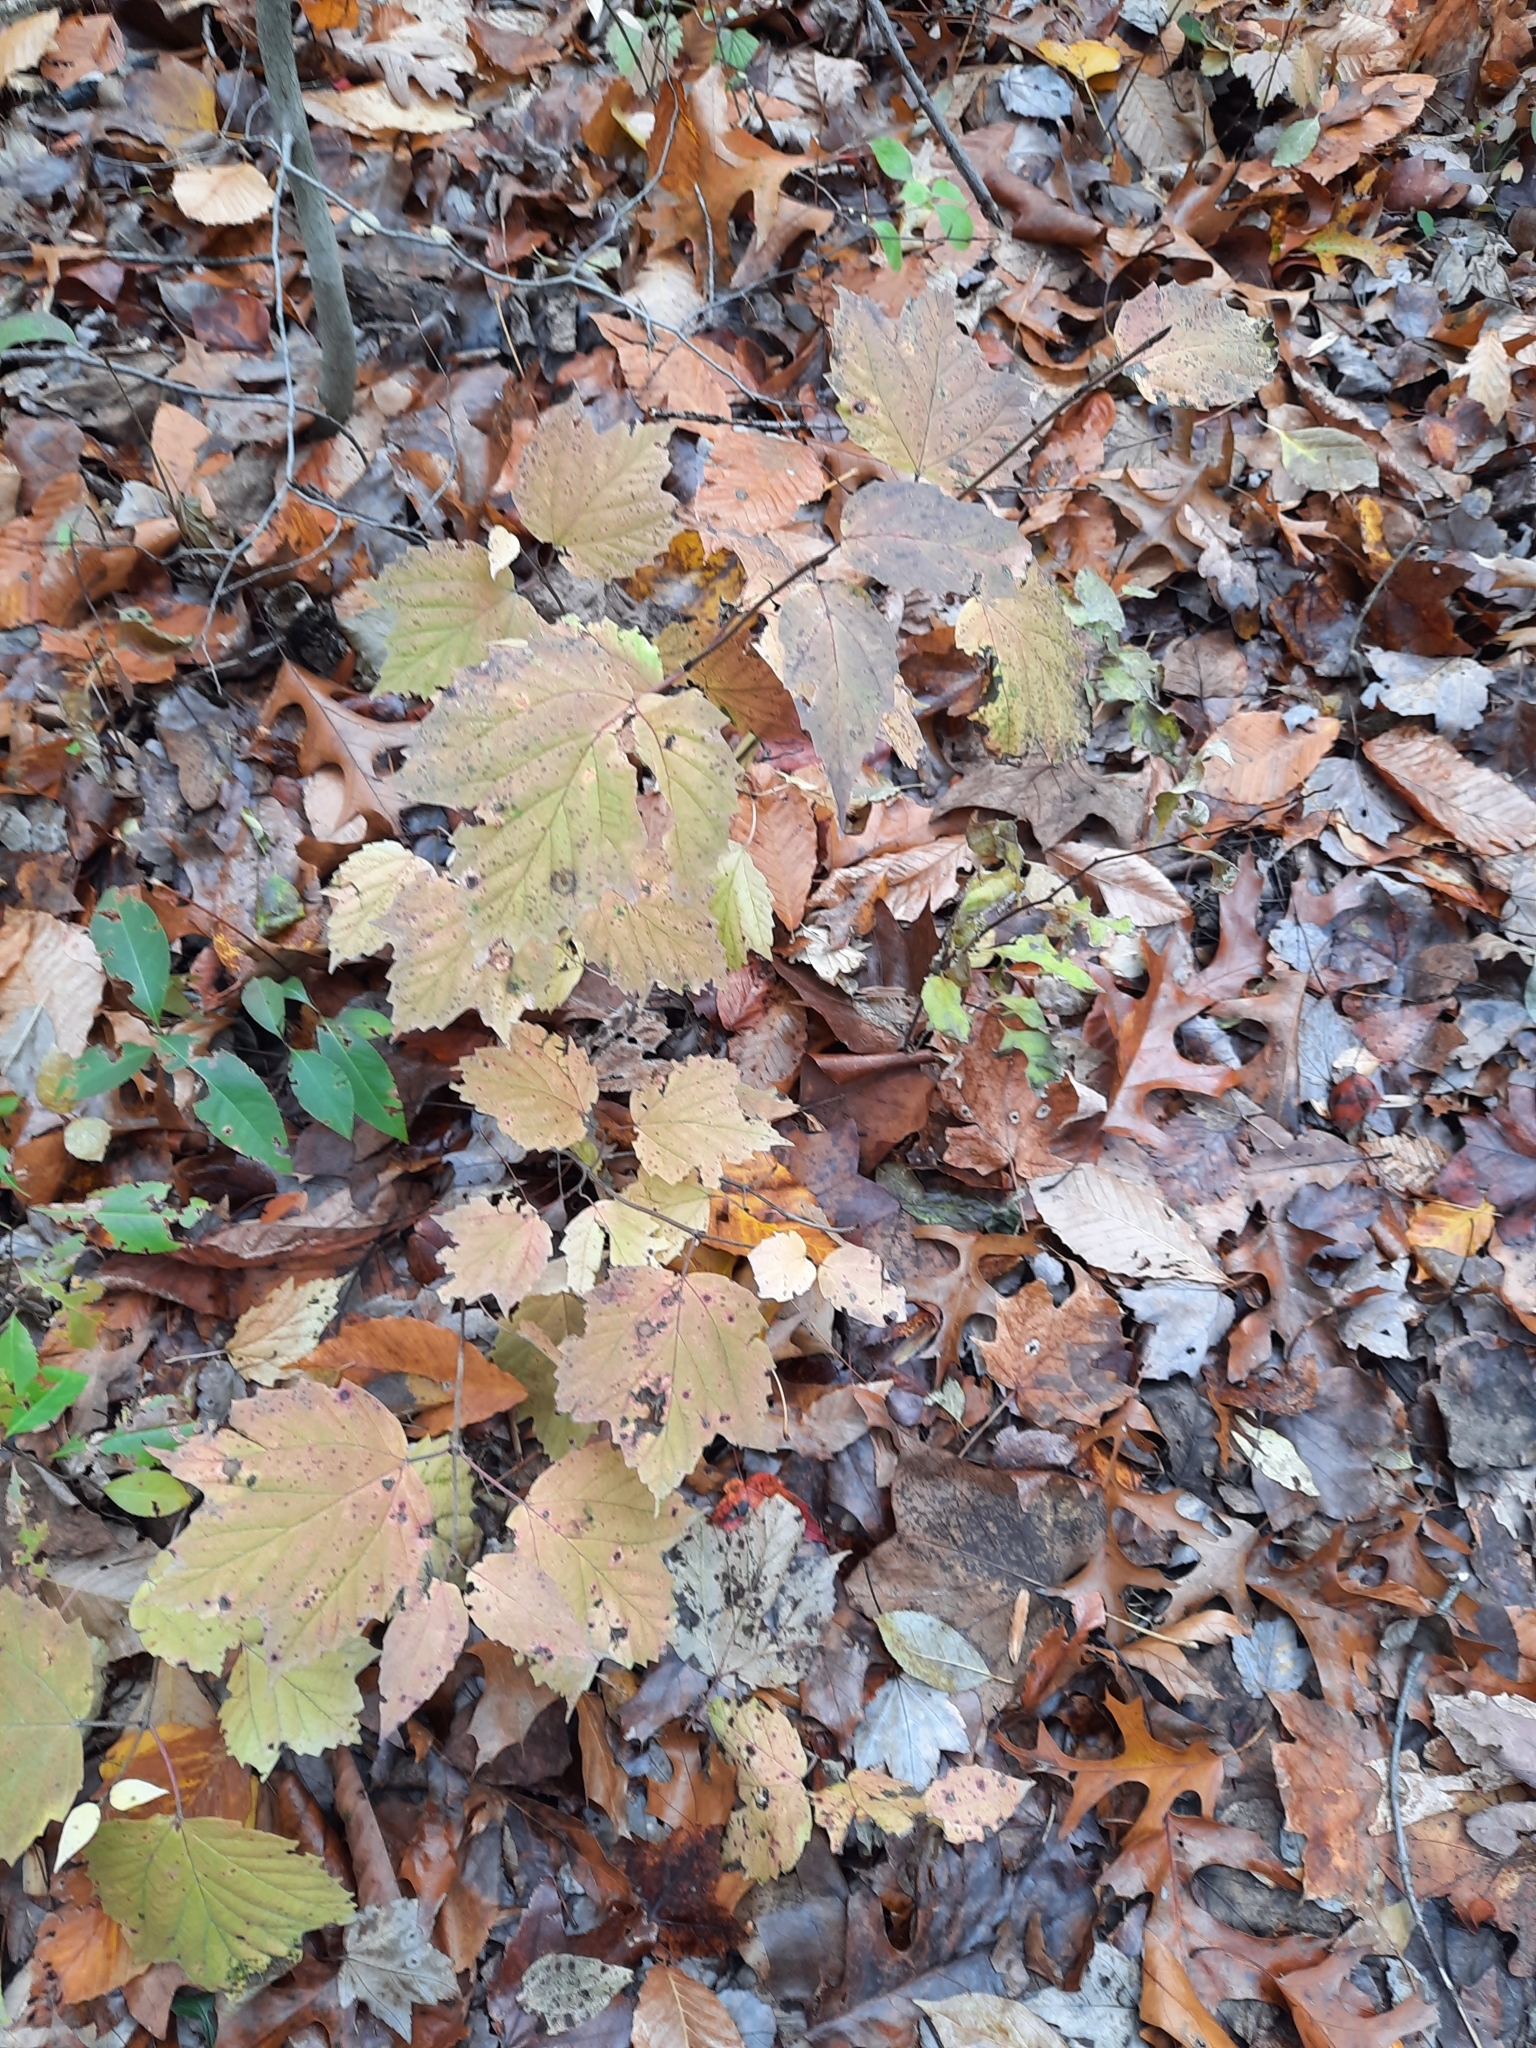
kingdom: Plantae
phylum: Tracheophyta
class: Magnoliopsida
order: Dipsacales
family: Viburnaceae
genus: Viburnum
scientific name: Viburnum acerifolium
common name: Dockmackie
